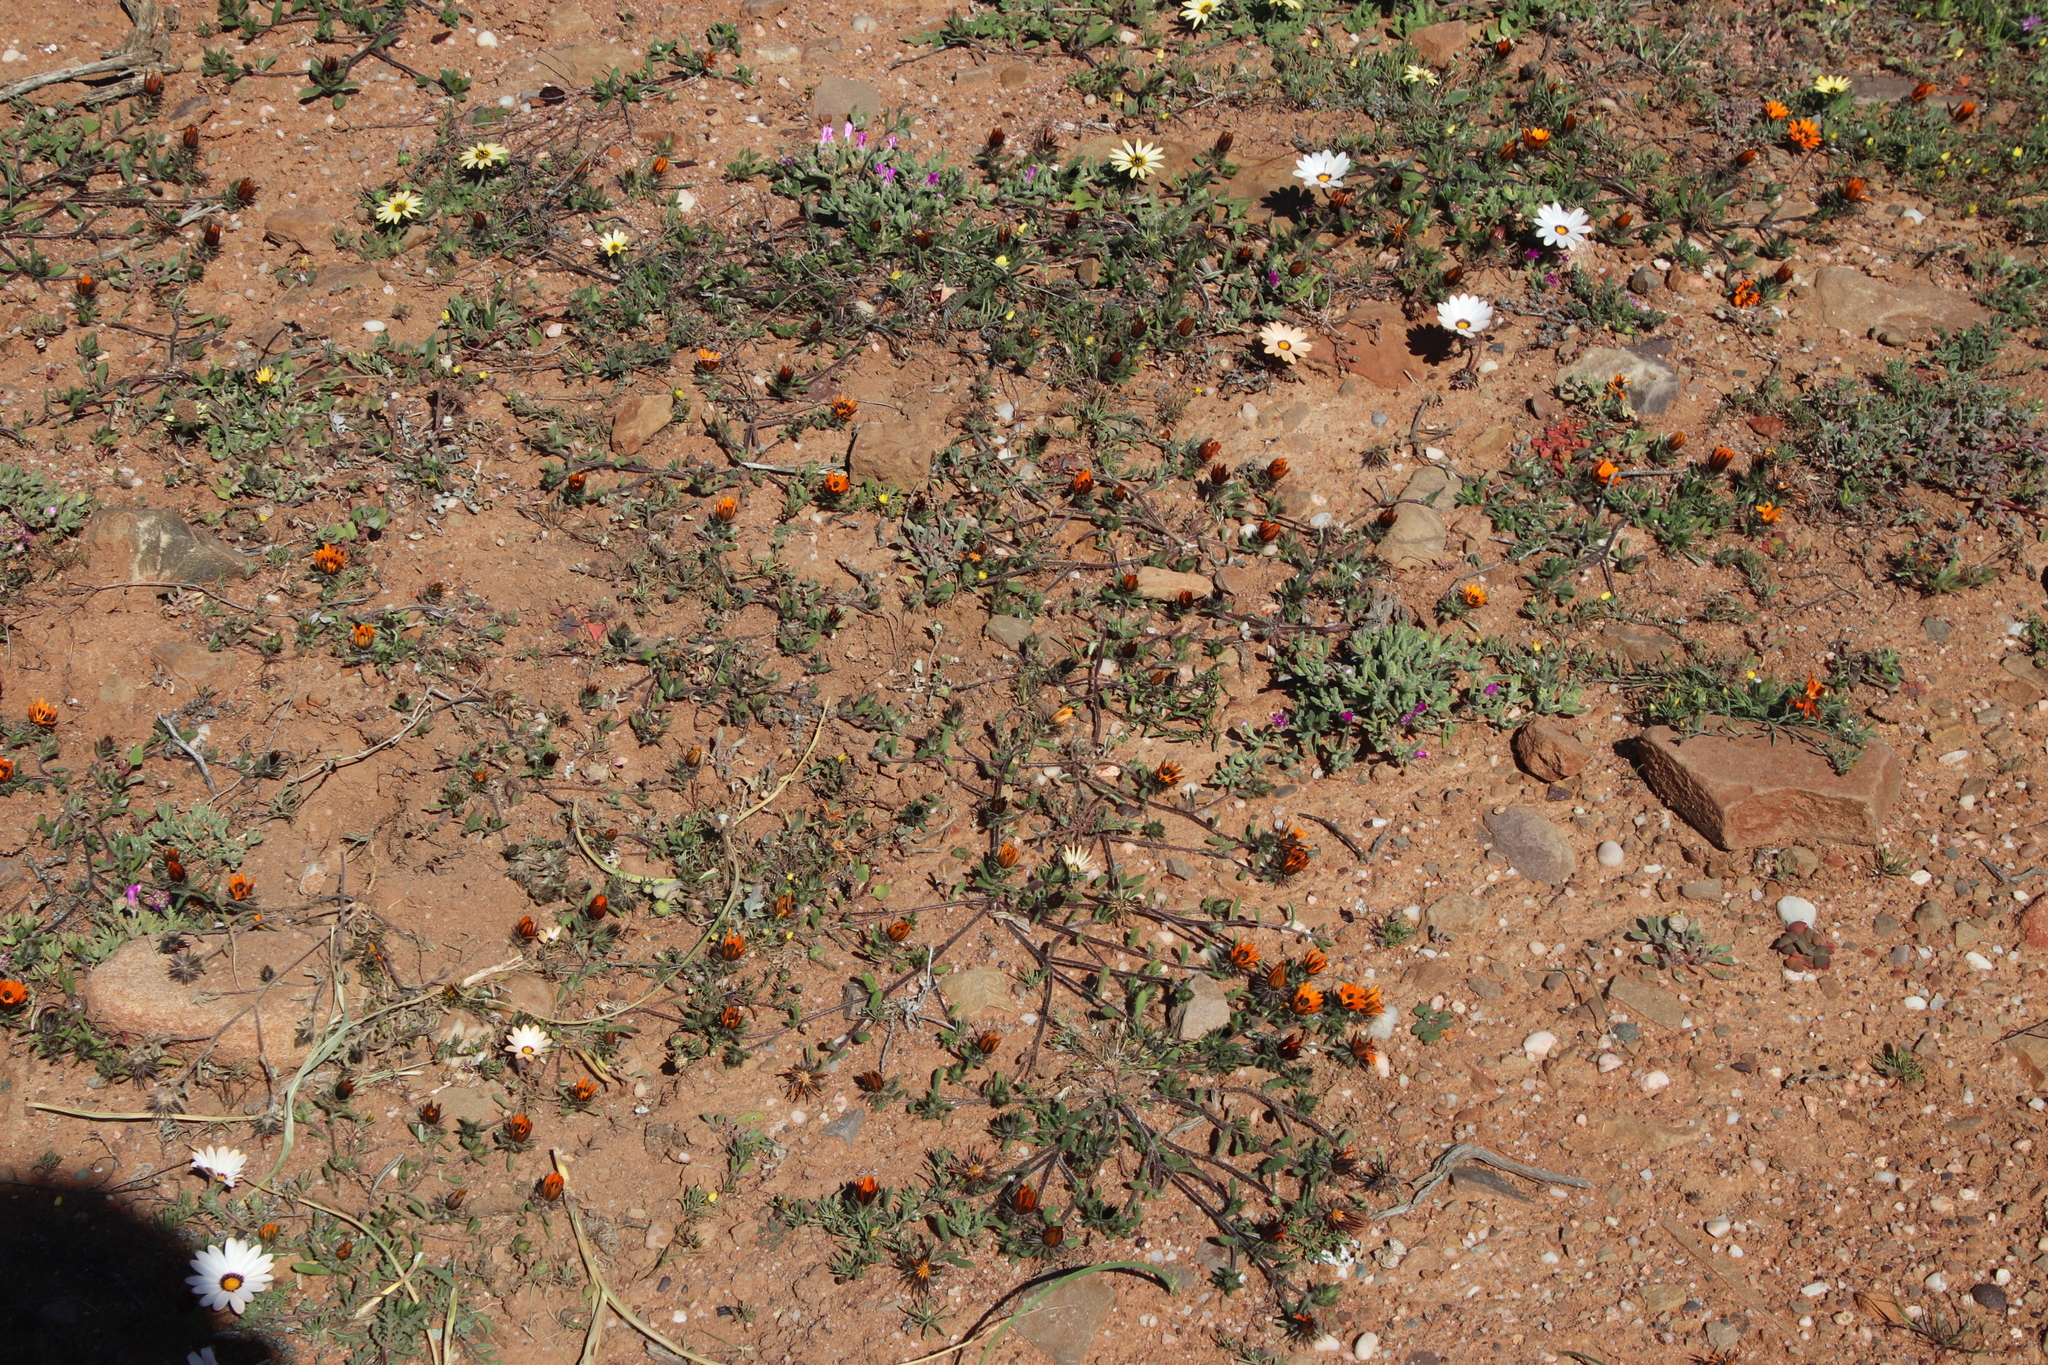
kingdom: Plantae
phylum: Tracheophyta
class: Magnoliopsida
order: Asterales
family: Asteraceae
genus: Gorteria
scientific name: Gorteria diffusa
